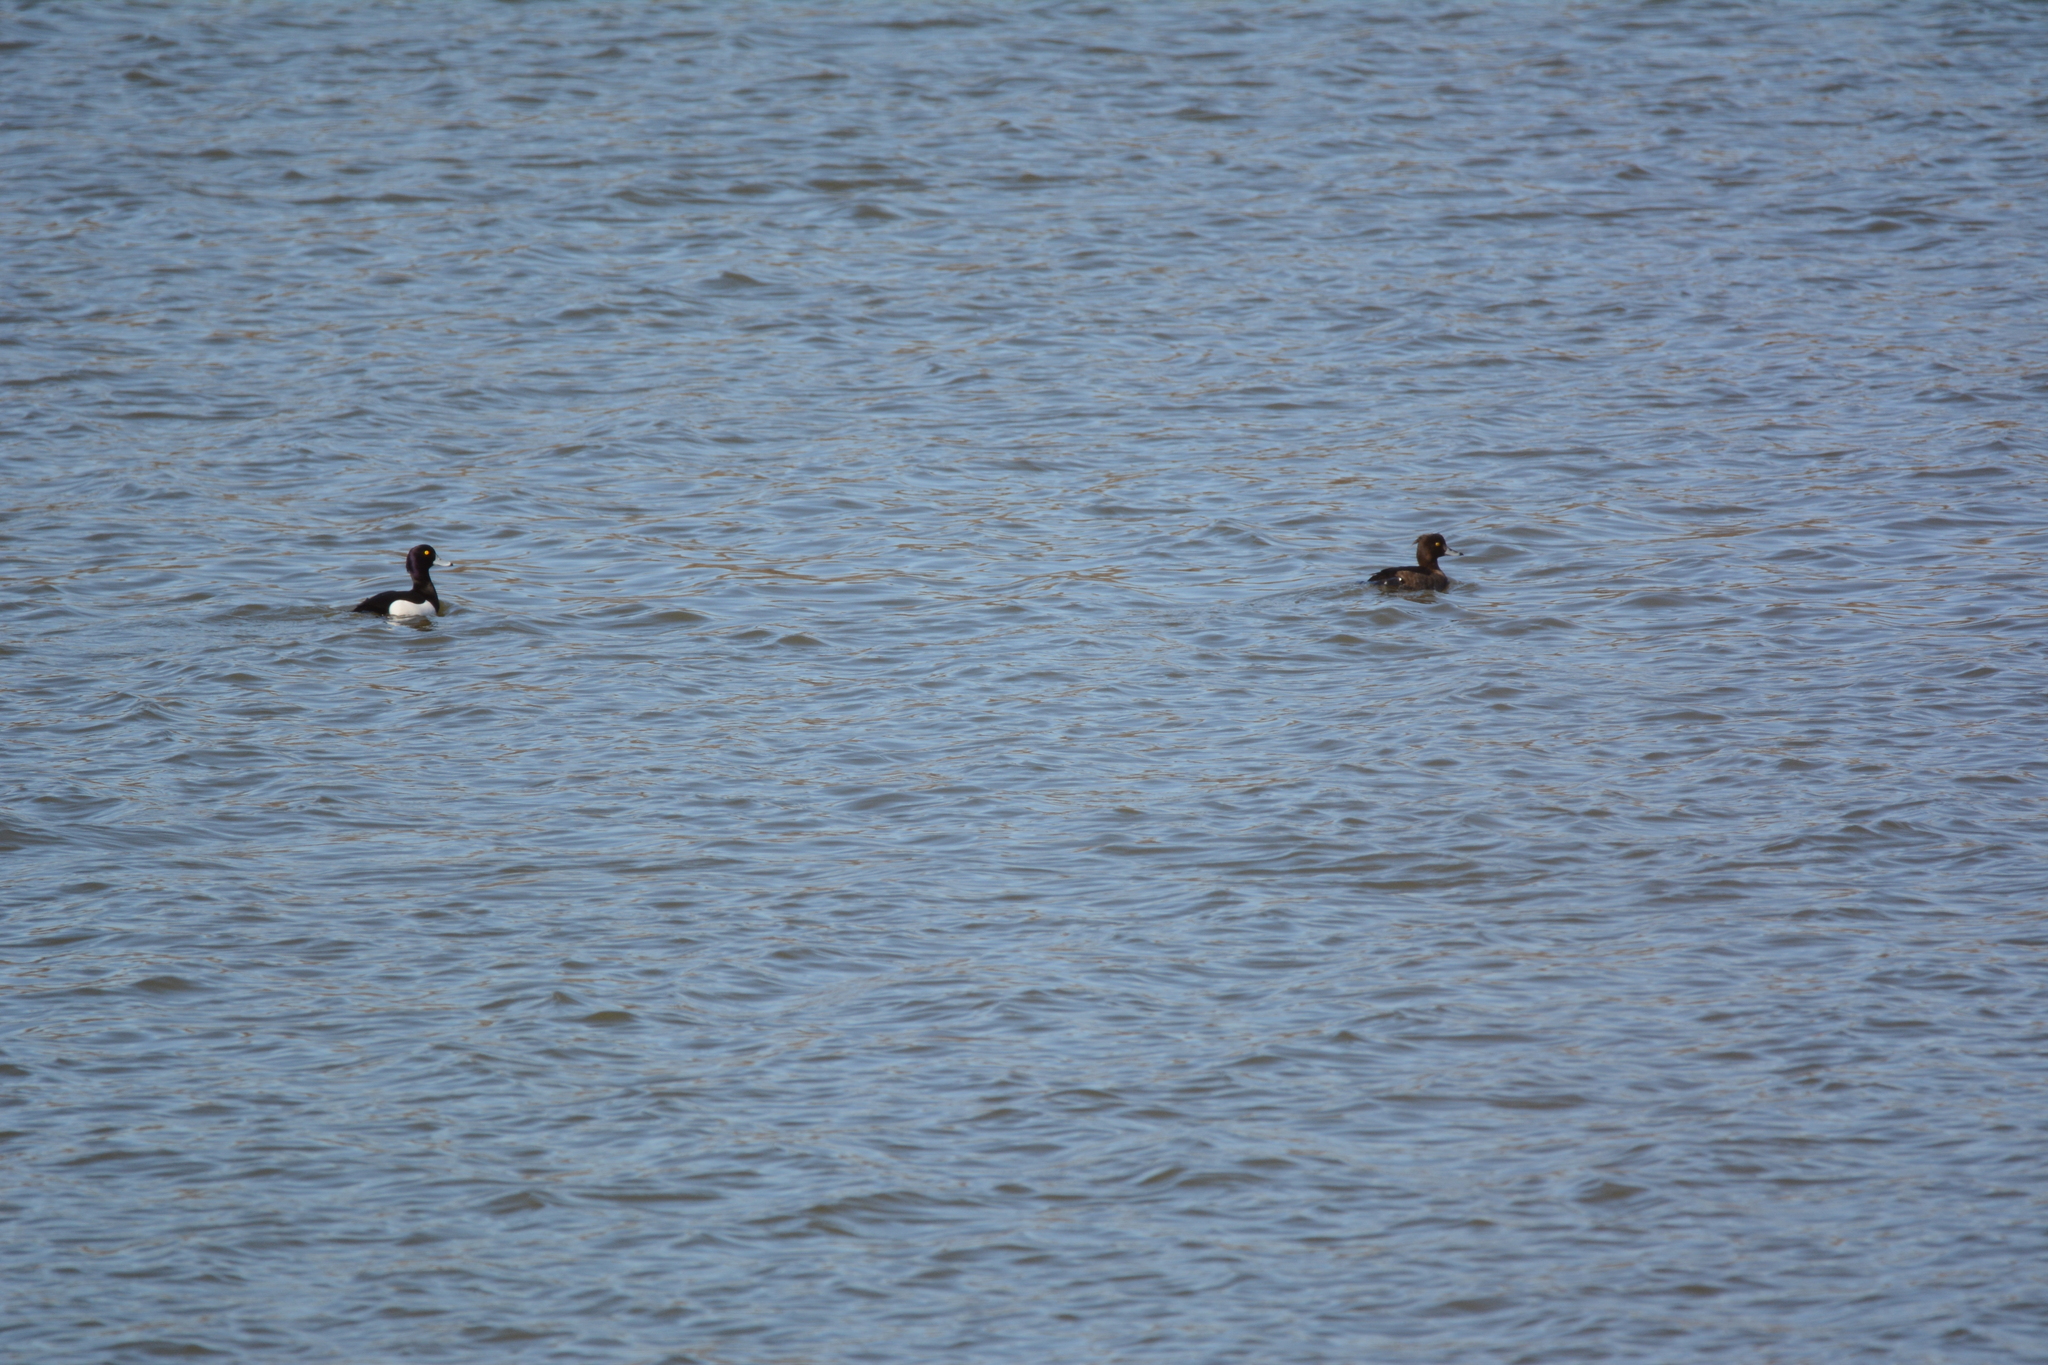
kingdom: Animalia
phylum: Chordata
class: Aves
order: Anseriformes
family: Anatidae
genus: Aythya
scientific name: Aythya fuligula
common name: Tufted duck
